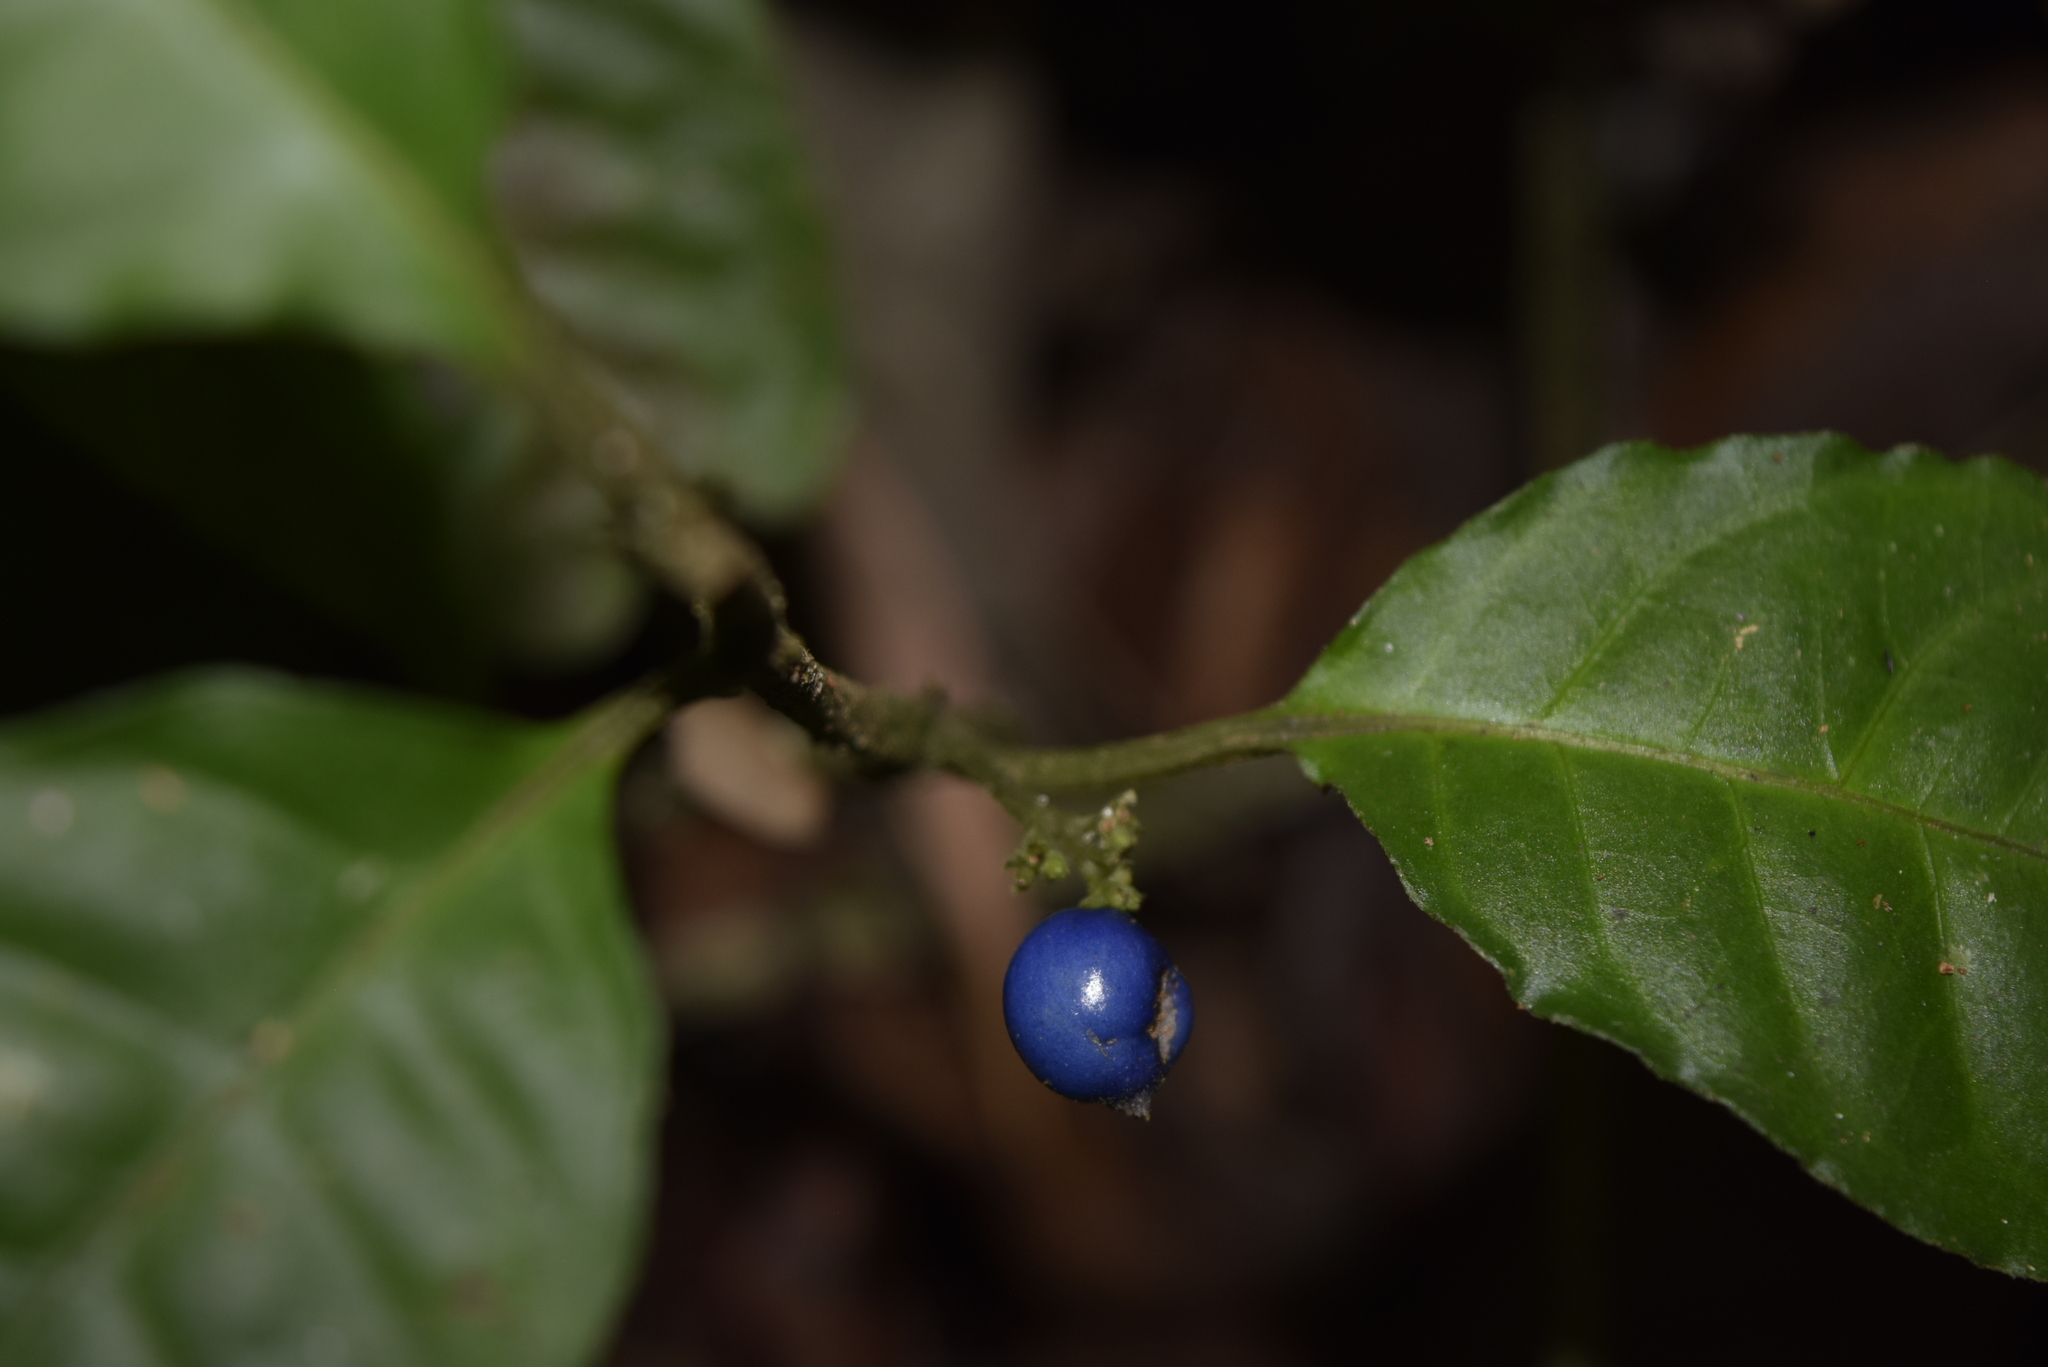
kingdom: Plantae
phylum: Tracheophyta
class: Magnoliopsida
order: Gentianales
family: Rubiaceae
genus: Ronabea
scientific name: Ronabea emetica
